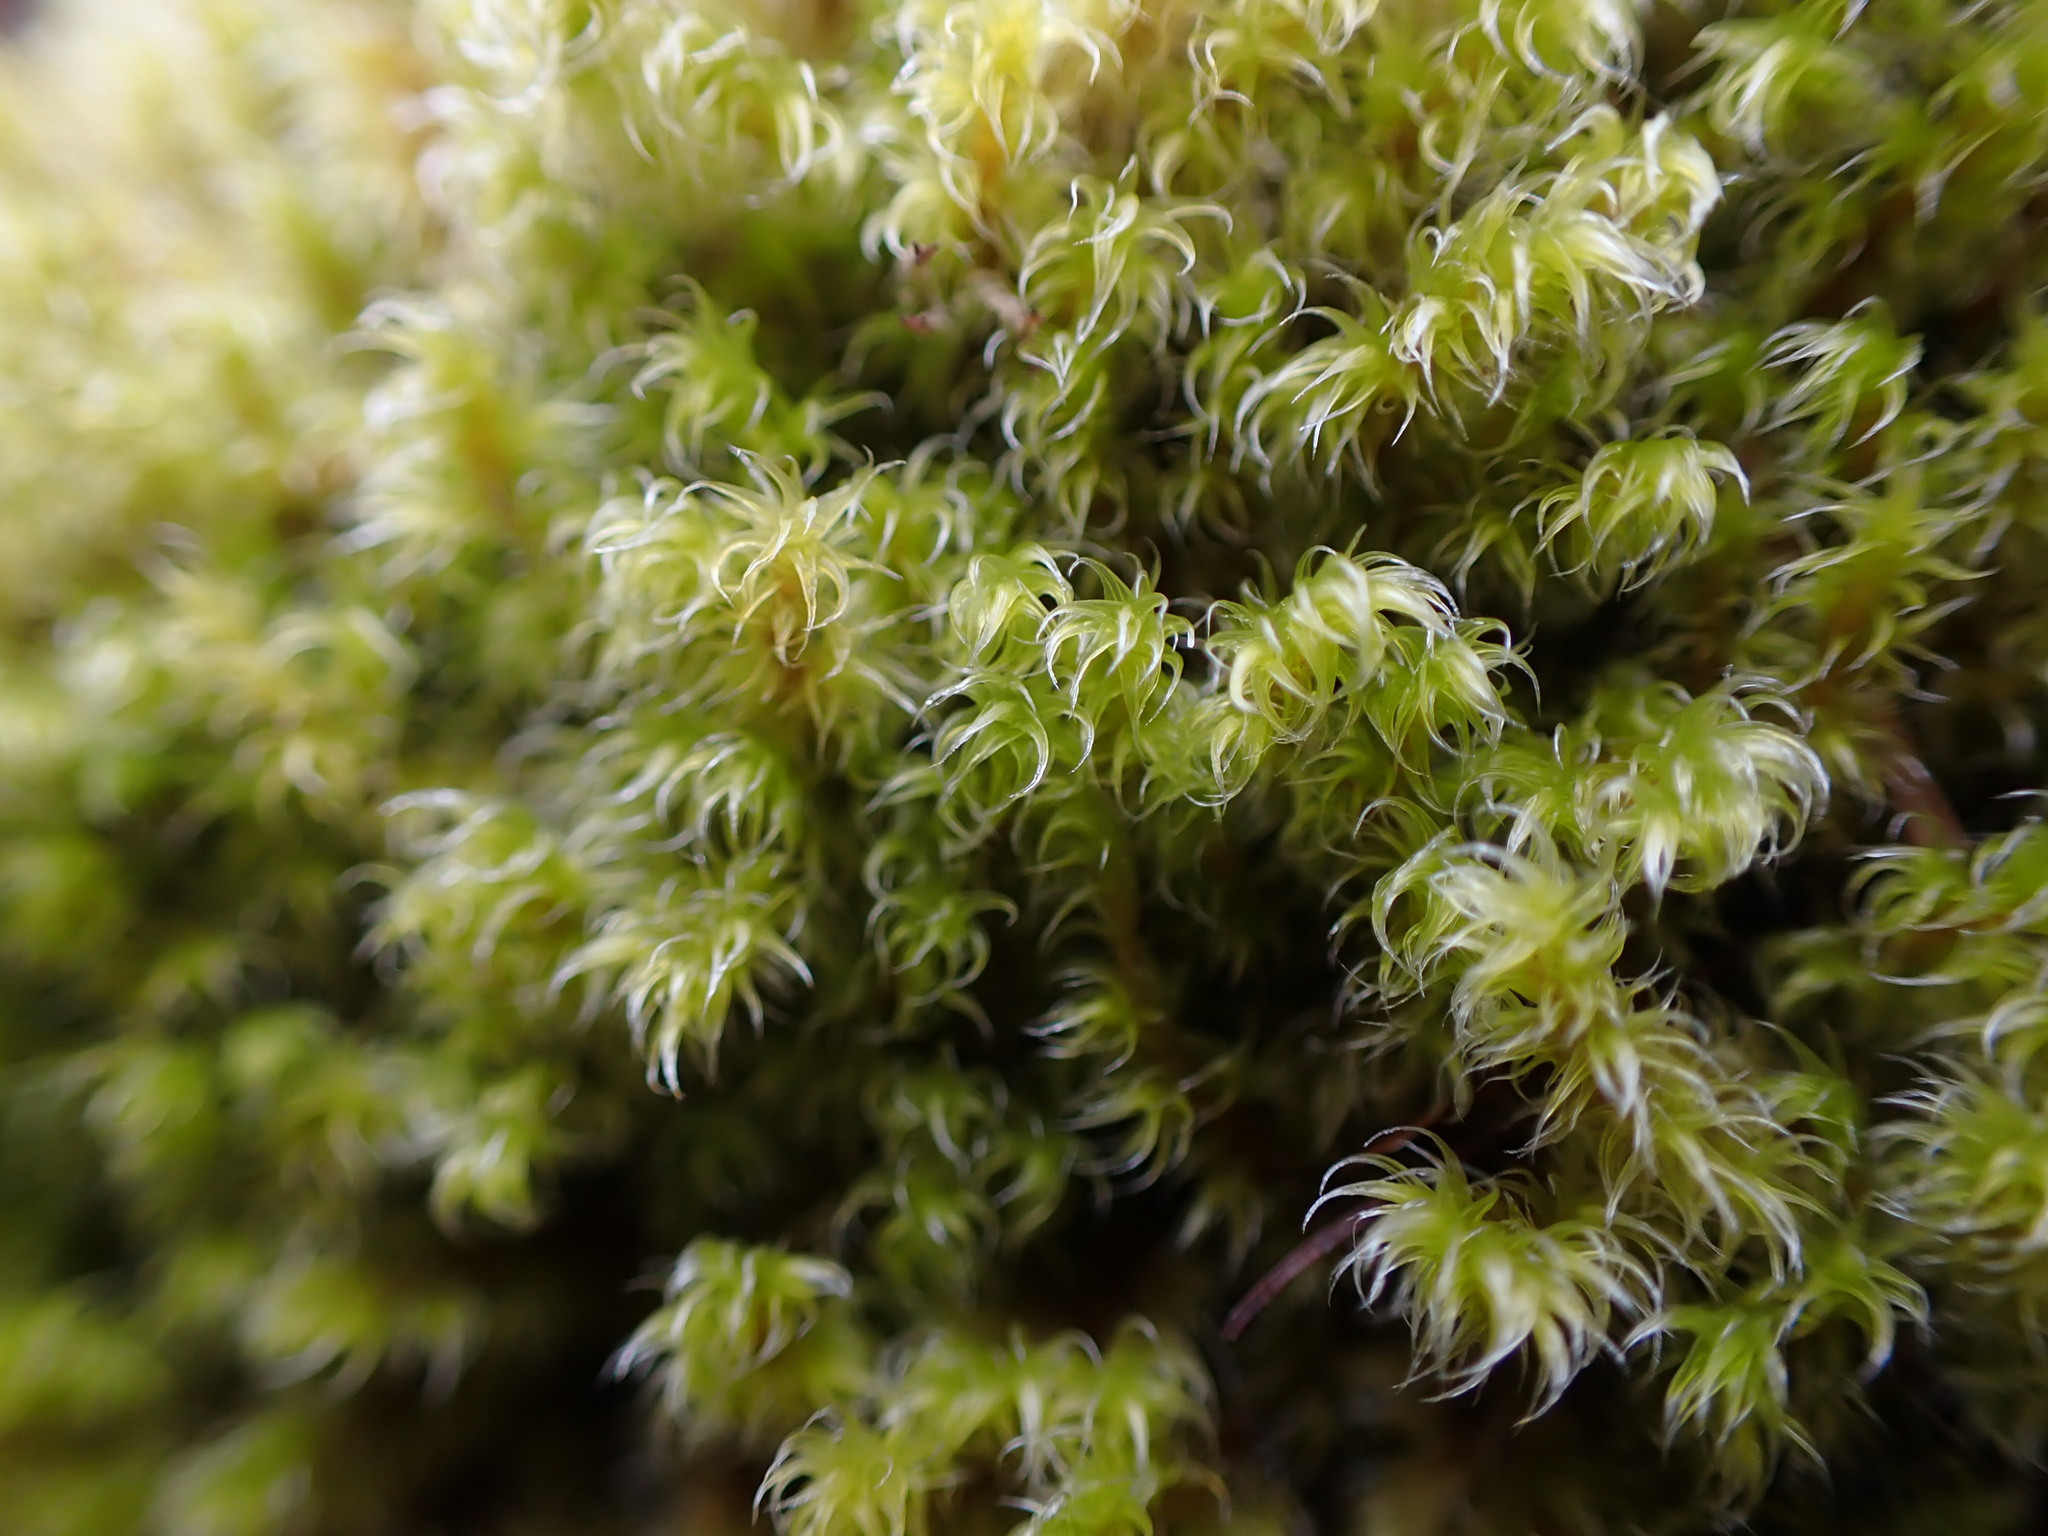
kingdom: Plantae
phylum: Bryophyta
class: Bryopsida
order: Grimmiales
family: Grimmiaceae
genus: Niphotrichum
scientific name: Niphotrichum elongatum
